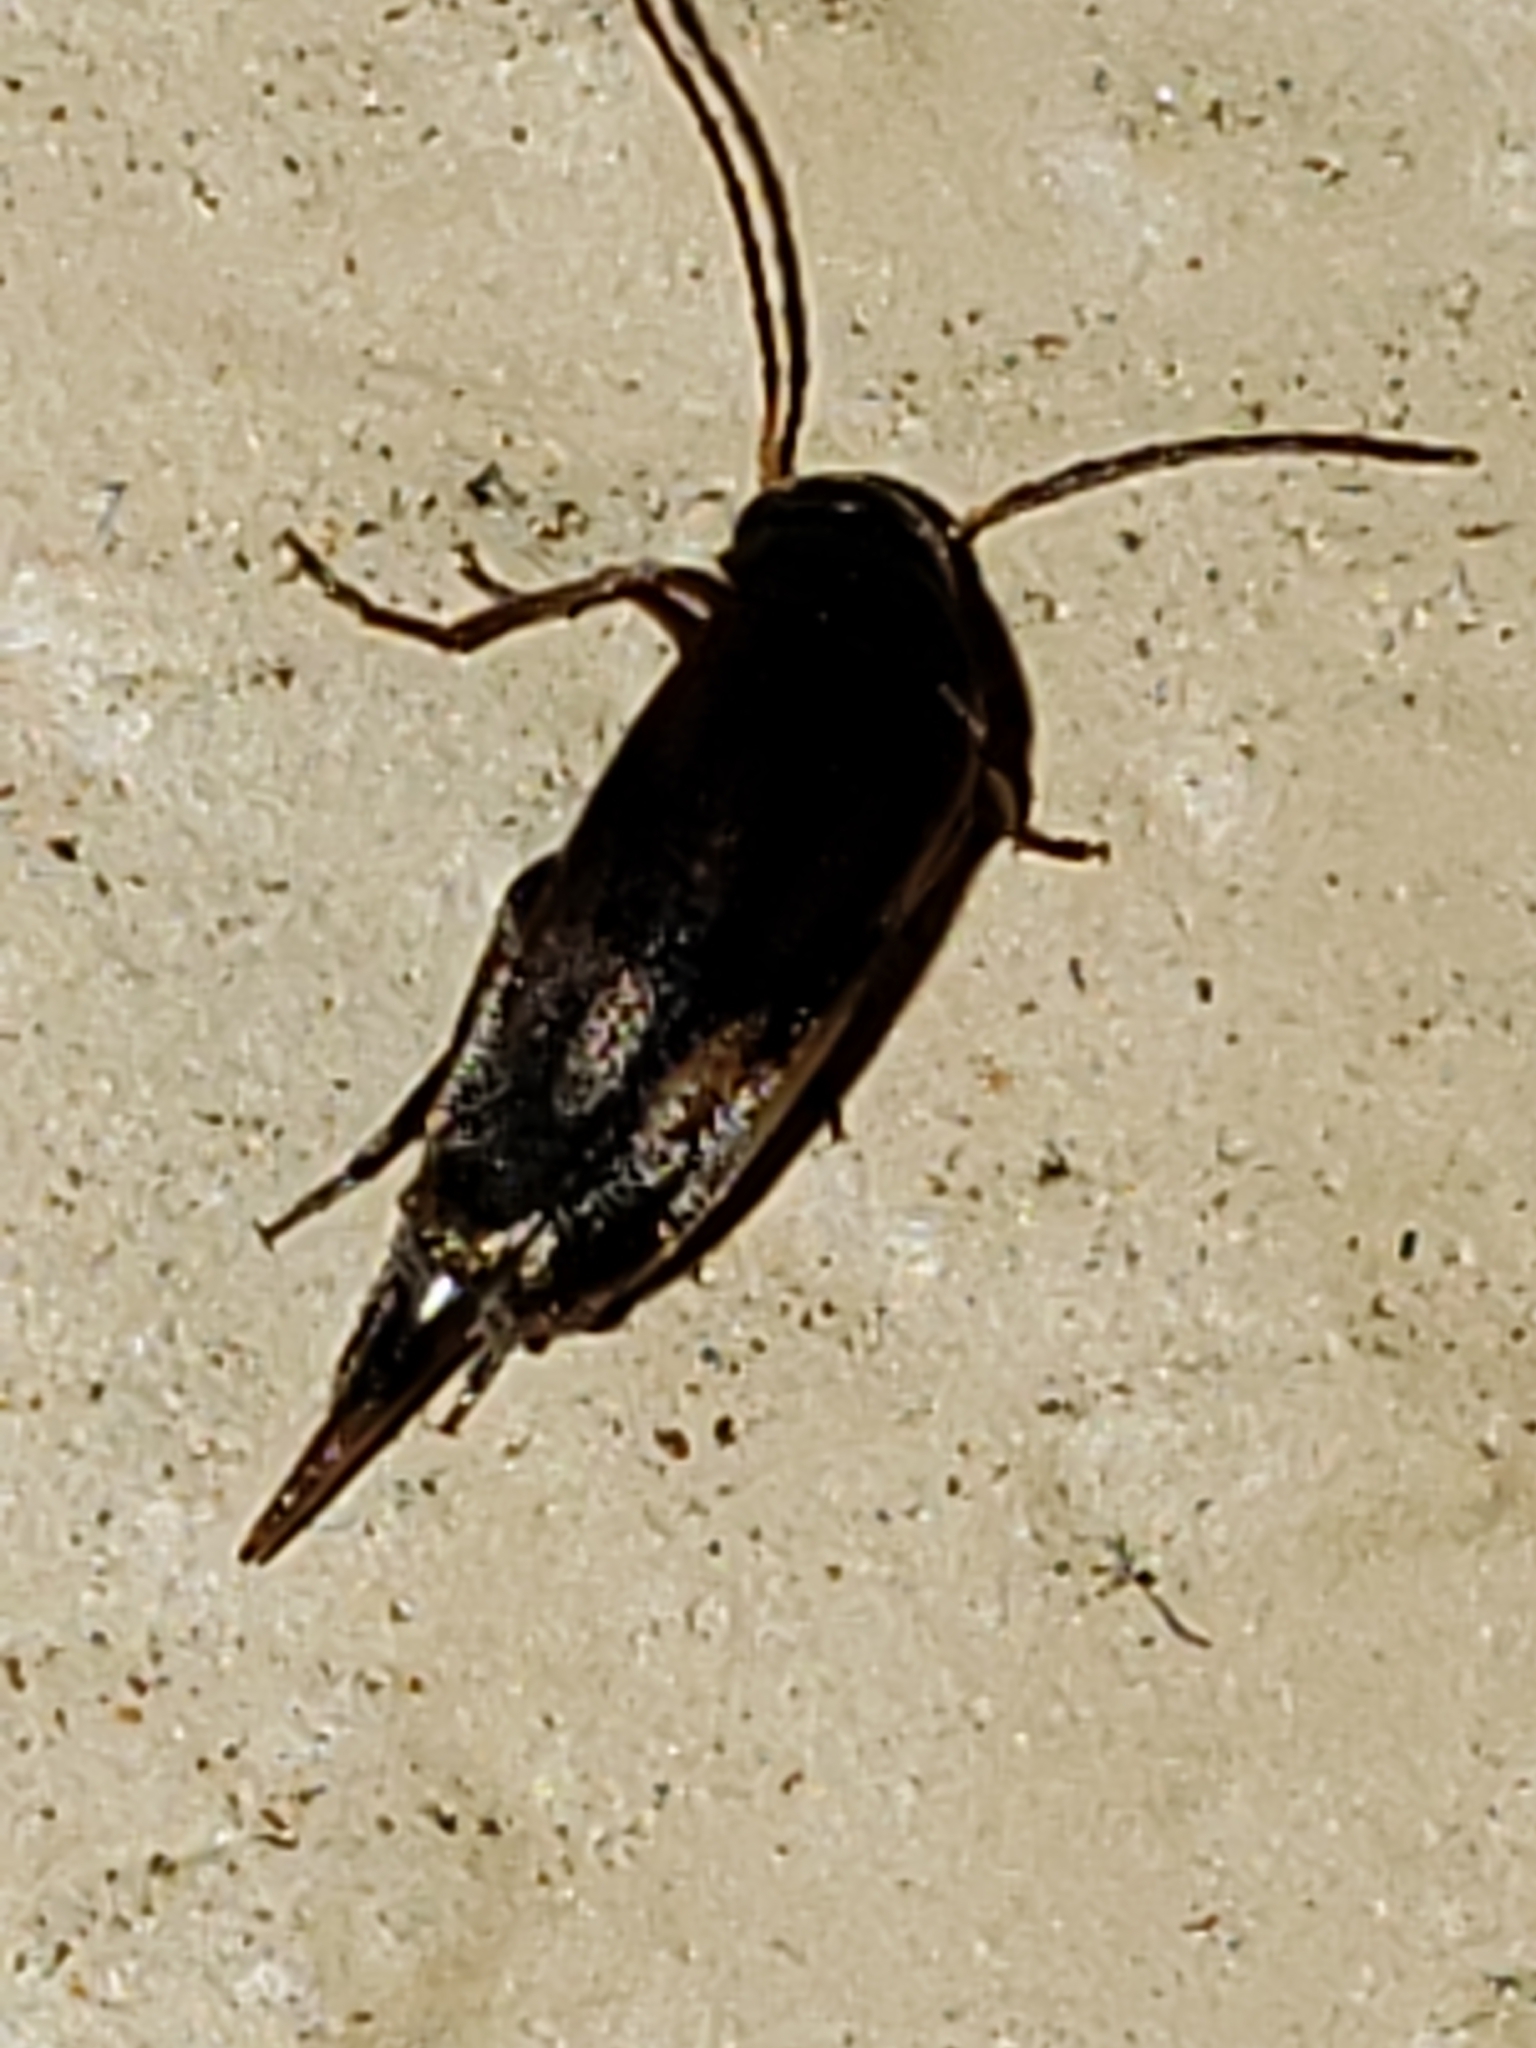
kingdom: Animalia
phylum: Arthropoda
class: Insecta
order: Coleoptera
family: Mordellidae
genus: Falsomordellistena
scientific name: Falsomordellistena bihamata
